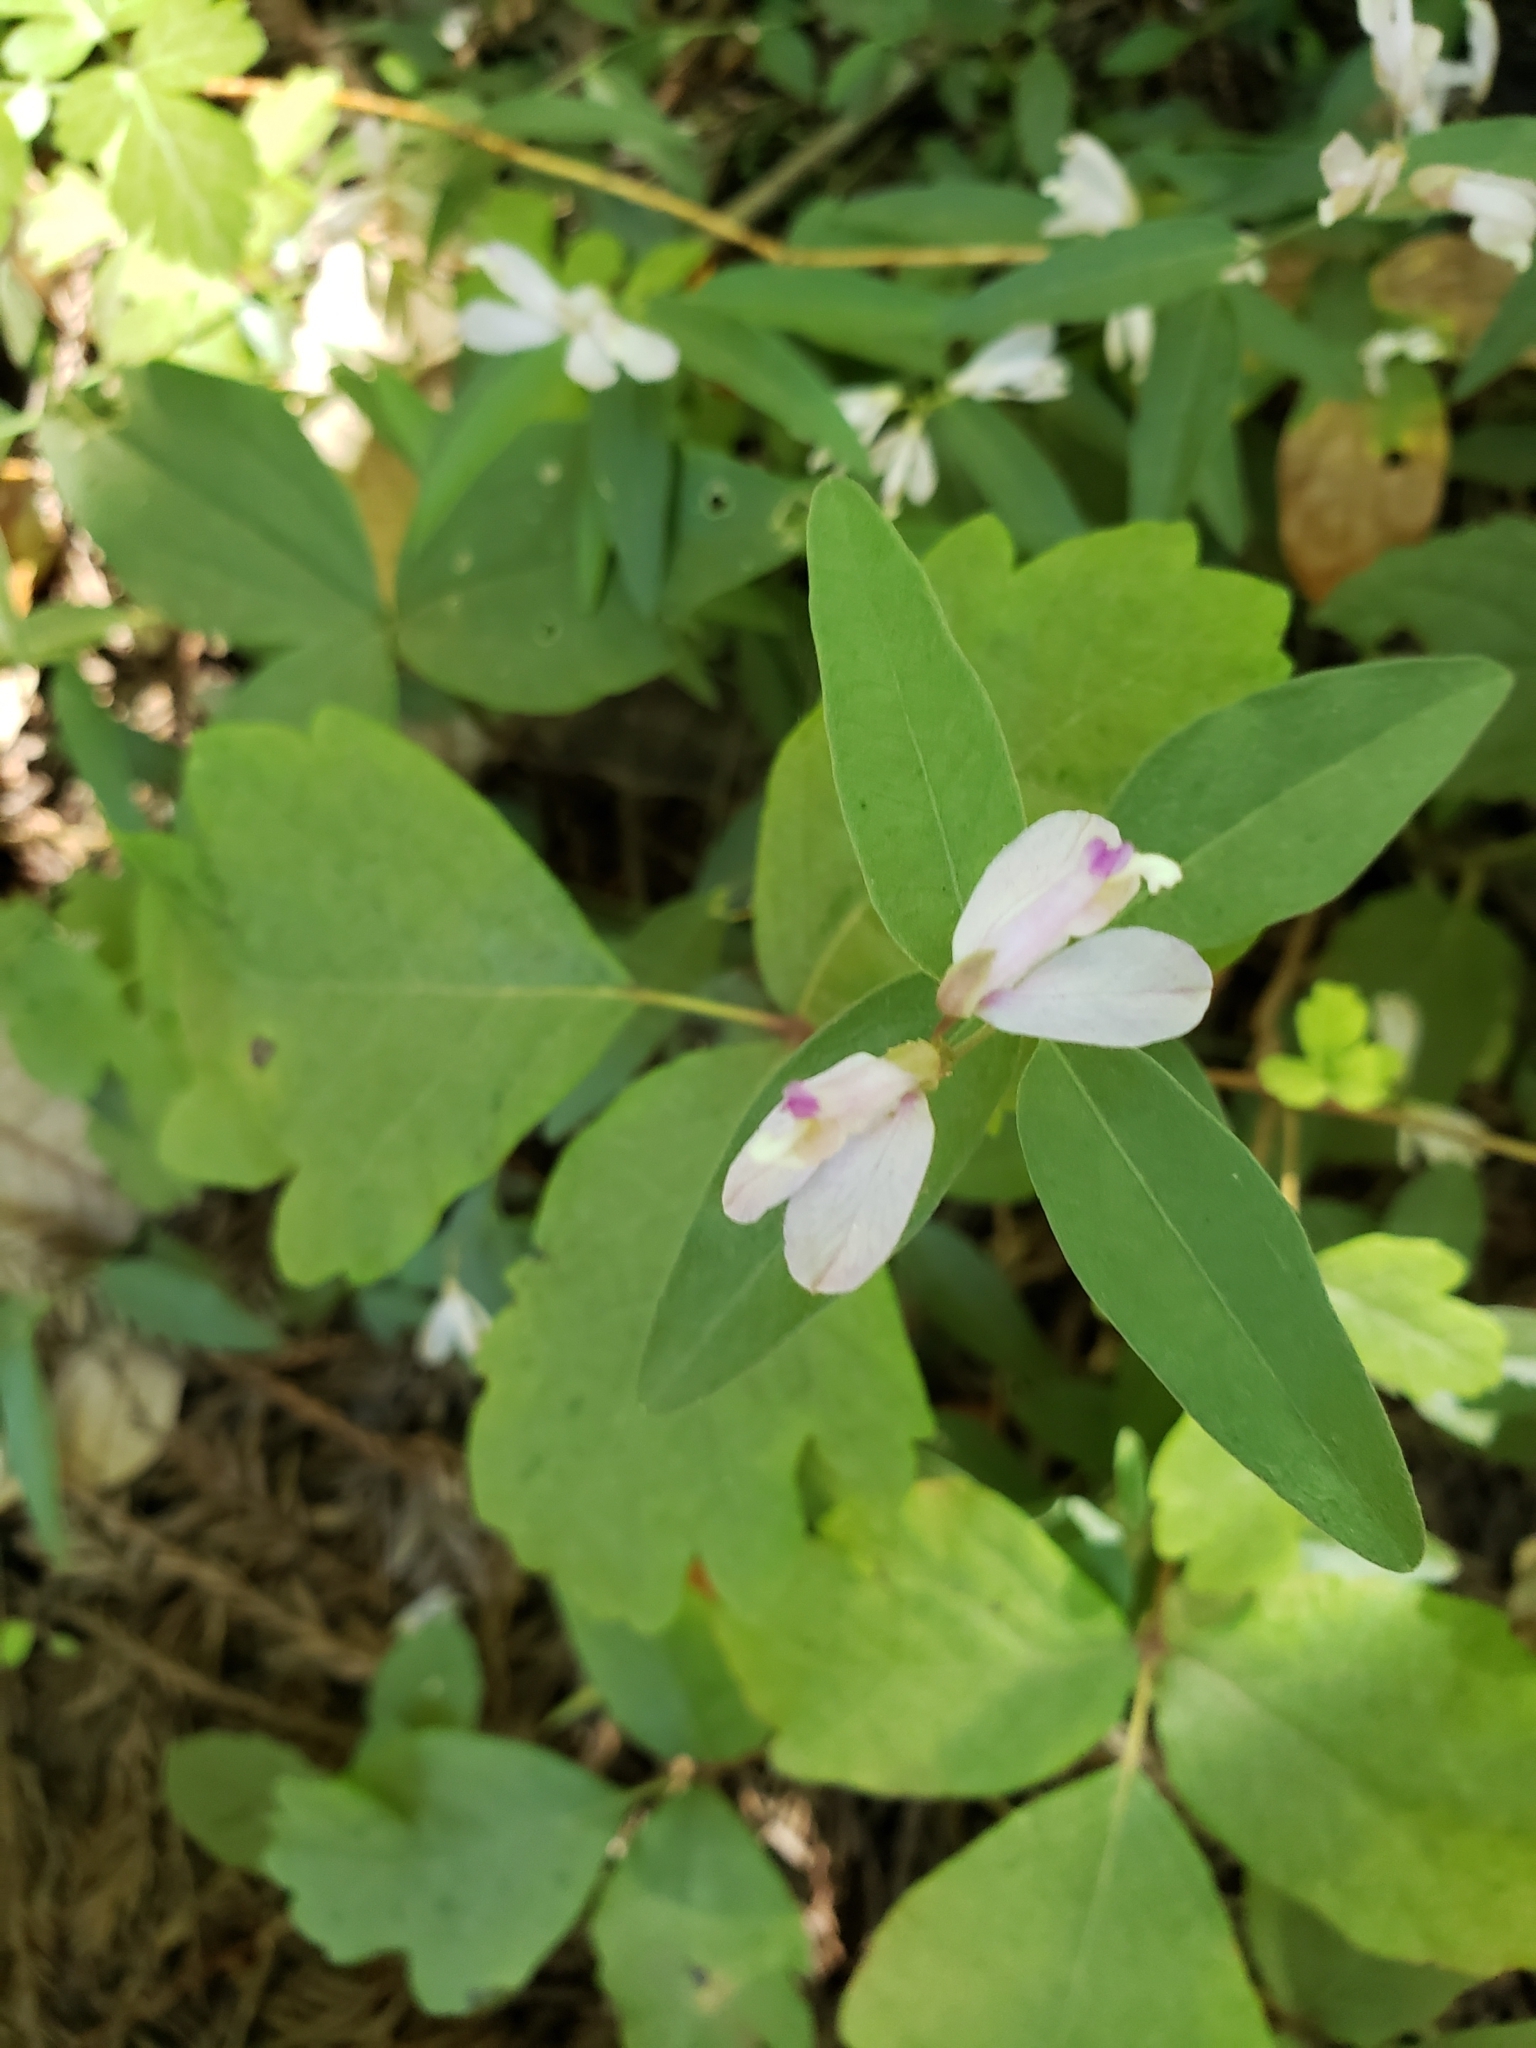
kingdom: Plantae
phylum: Tracheophyta
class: Magnoliopsida
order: Fabales
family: Polygalaceae
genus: Rhinotropis
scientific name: Rhinotropis californica
